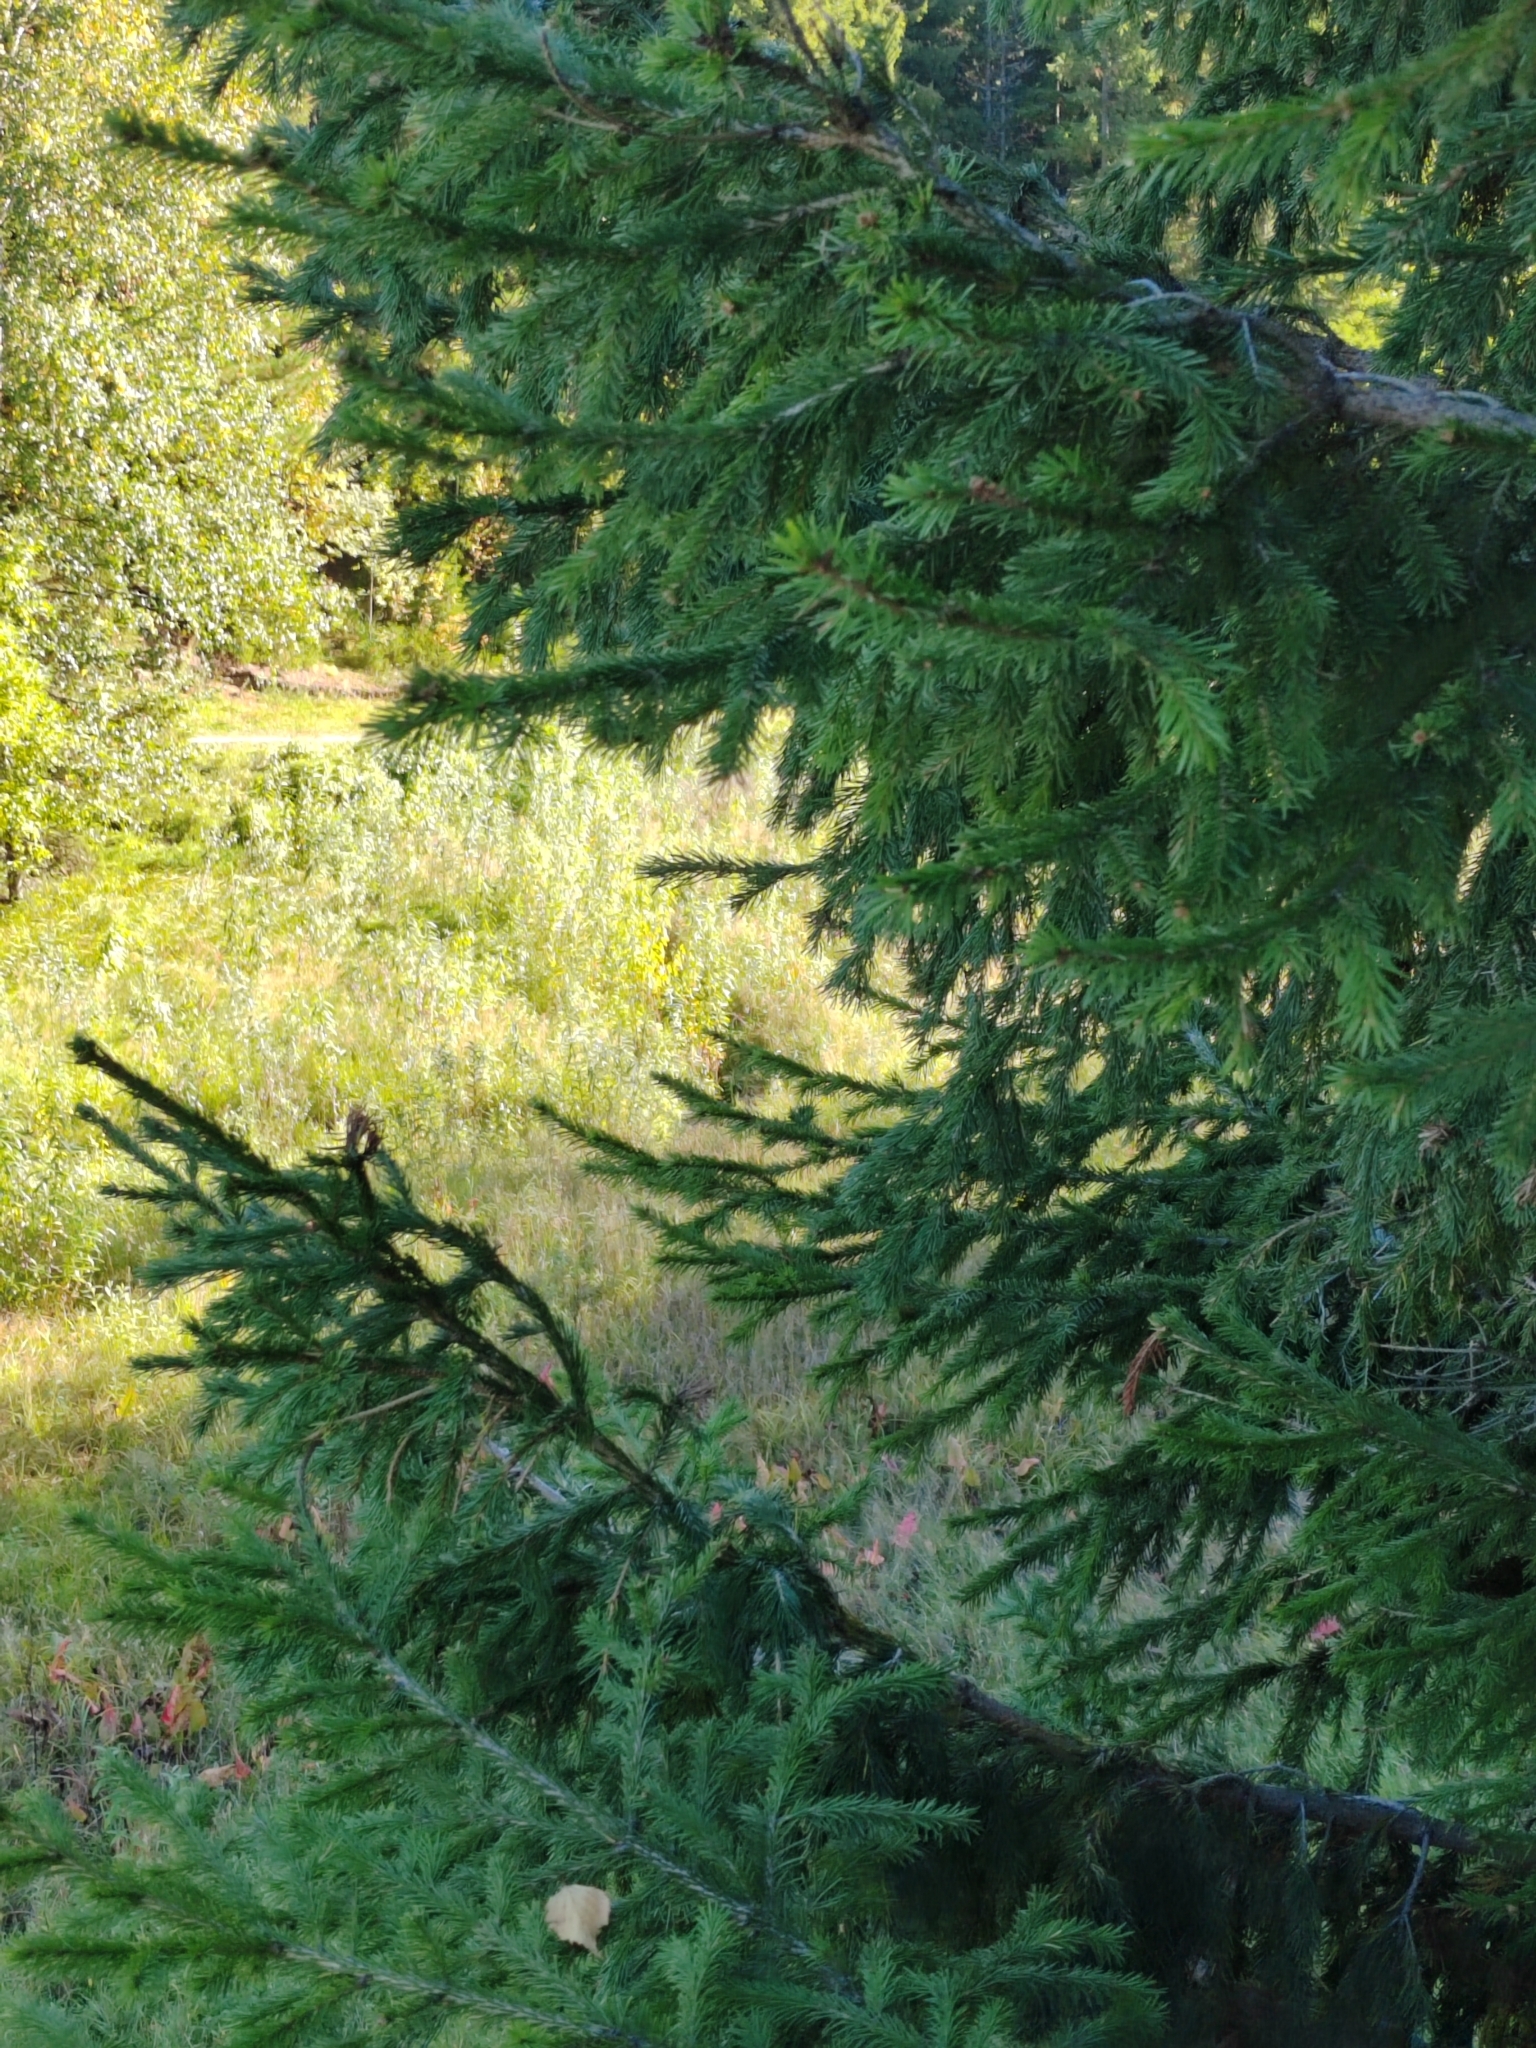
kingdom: Plantae
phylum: Tracheophyta
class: Pinopsida
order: Pinales
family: Pinaceae
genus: Picea
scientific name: Picea obovata
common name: Siberian spruce
